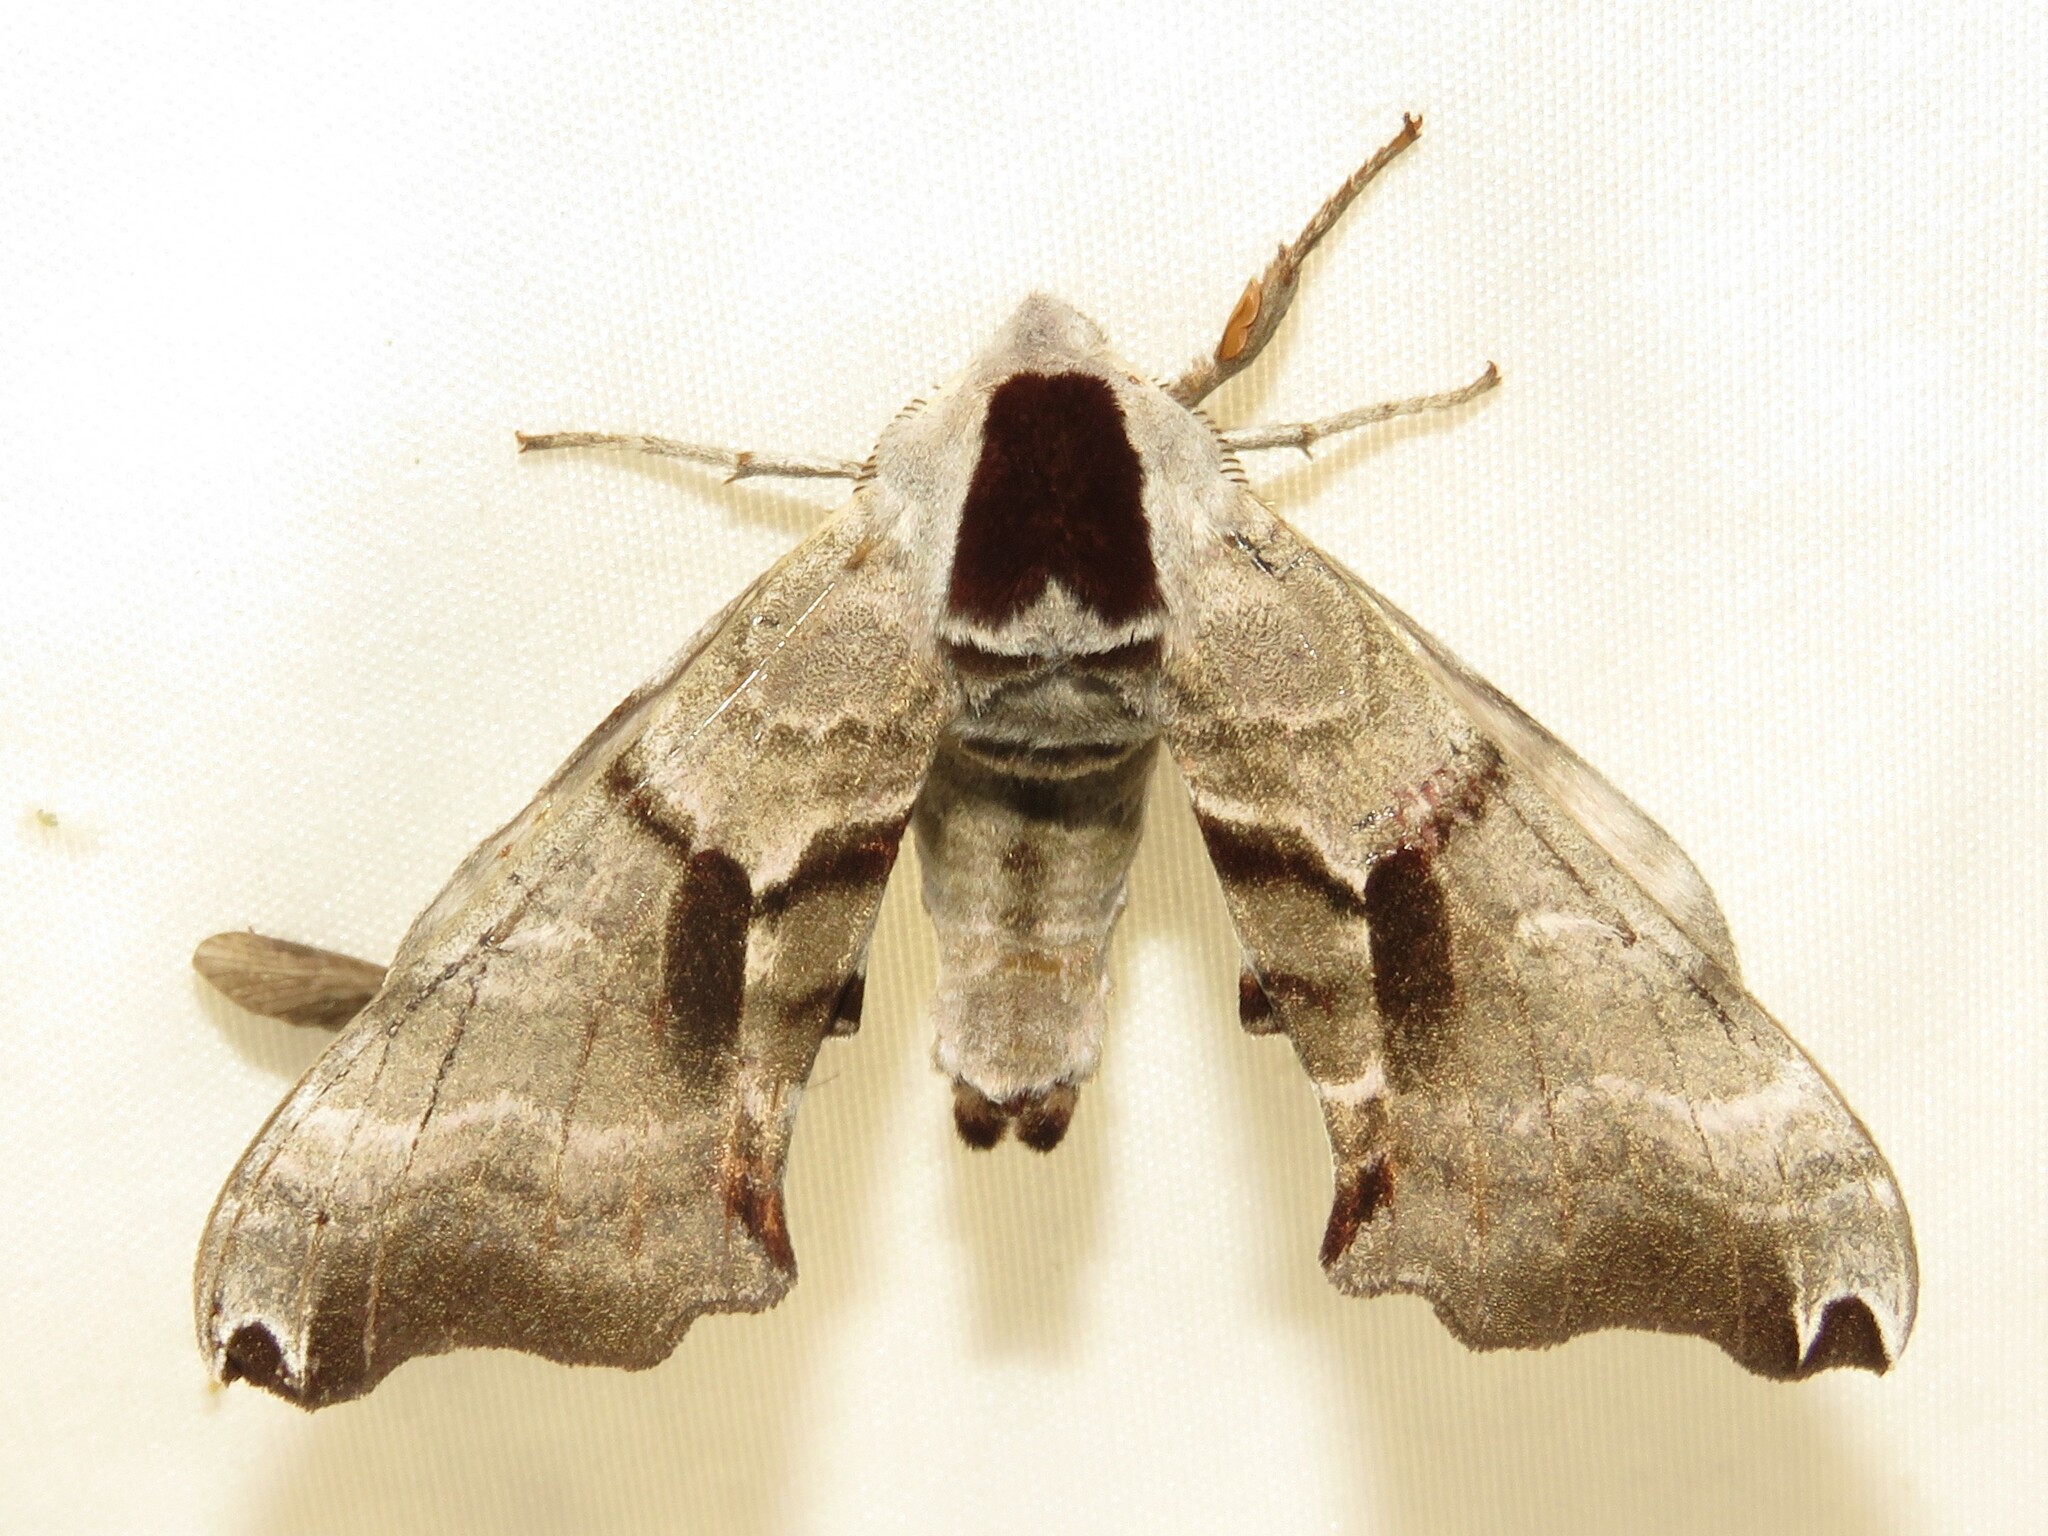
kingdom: Animalia
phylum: Arthropoda
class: Insecta
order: Lepidoptera
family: Sphingidae
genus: Smerinthus
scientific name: Smerinthus jamaicensis
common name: Twin spotted sphinx
